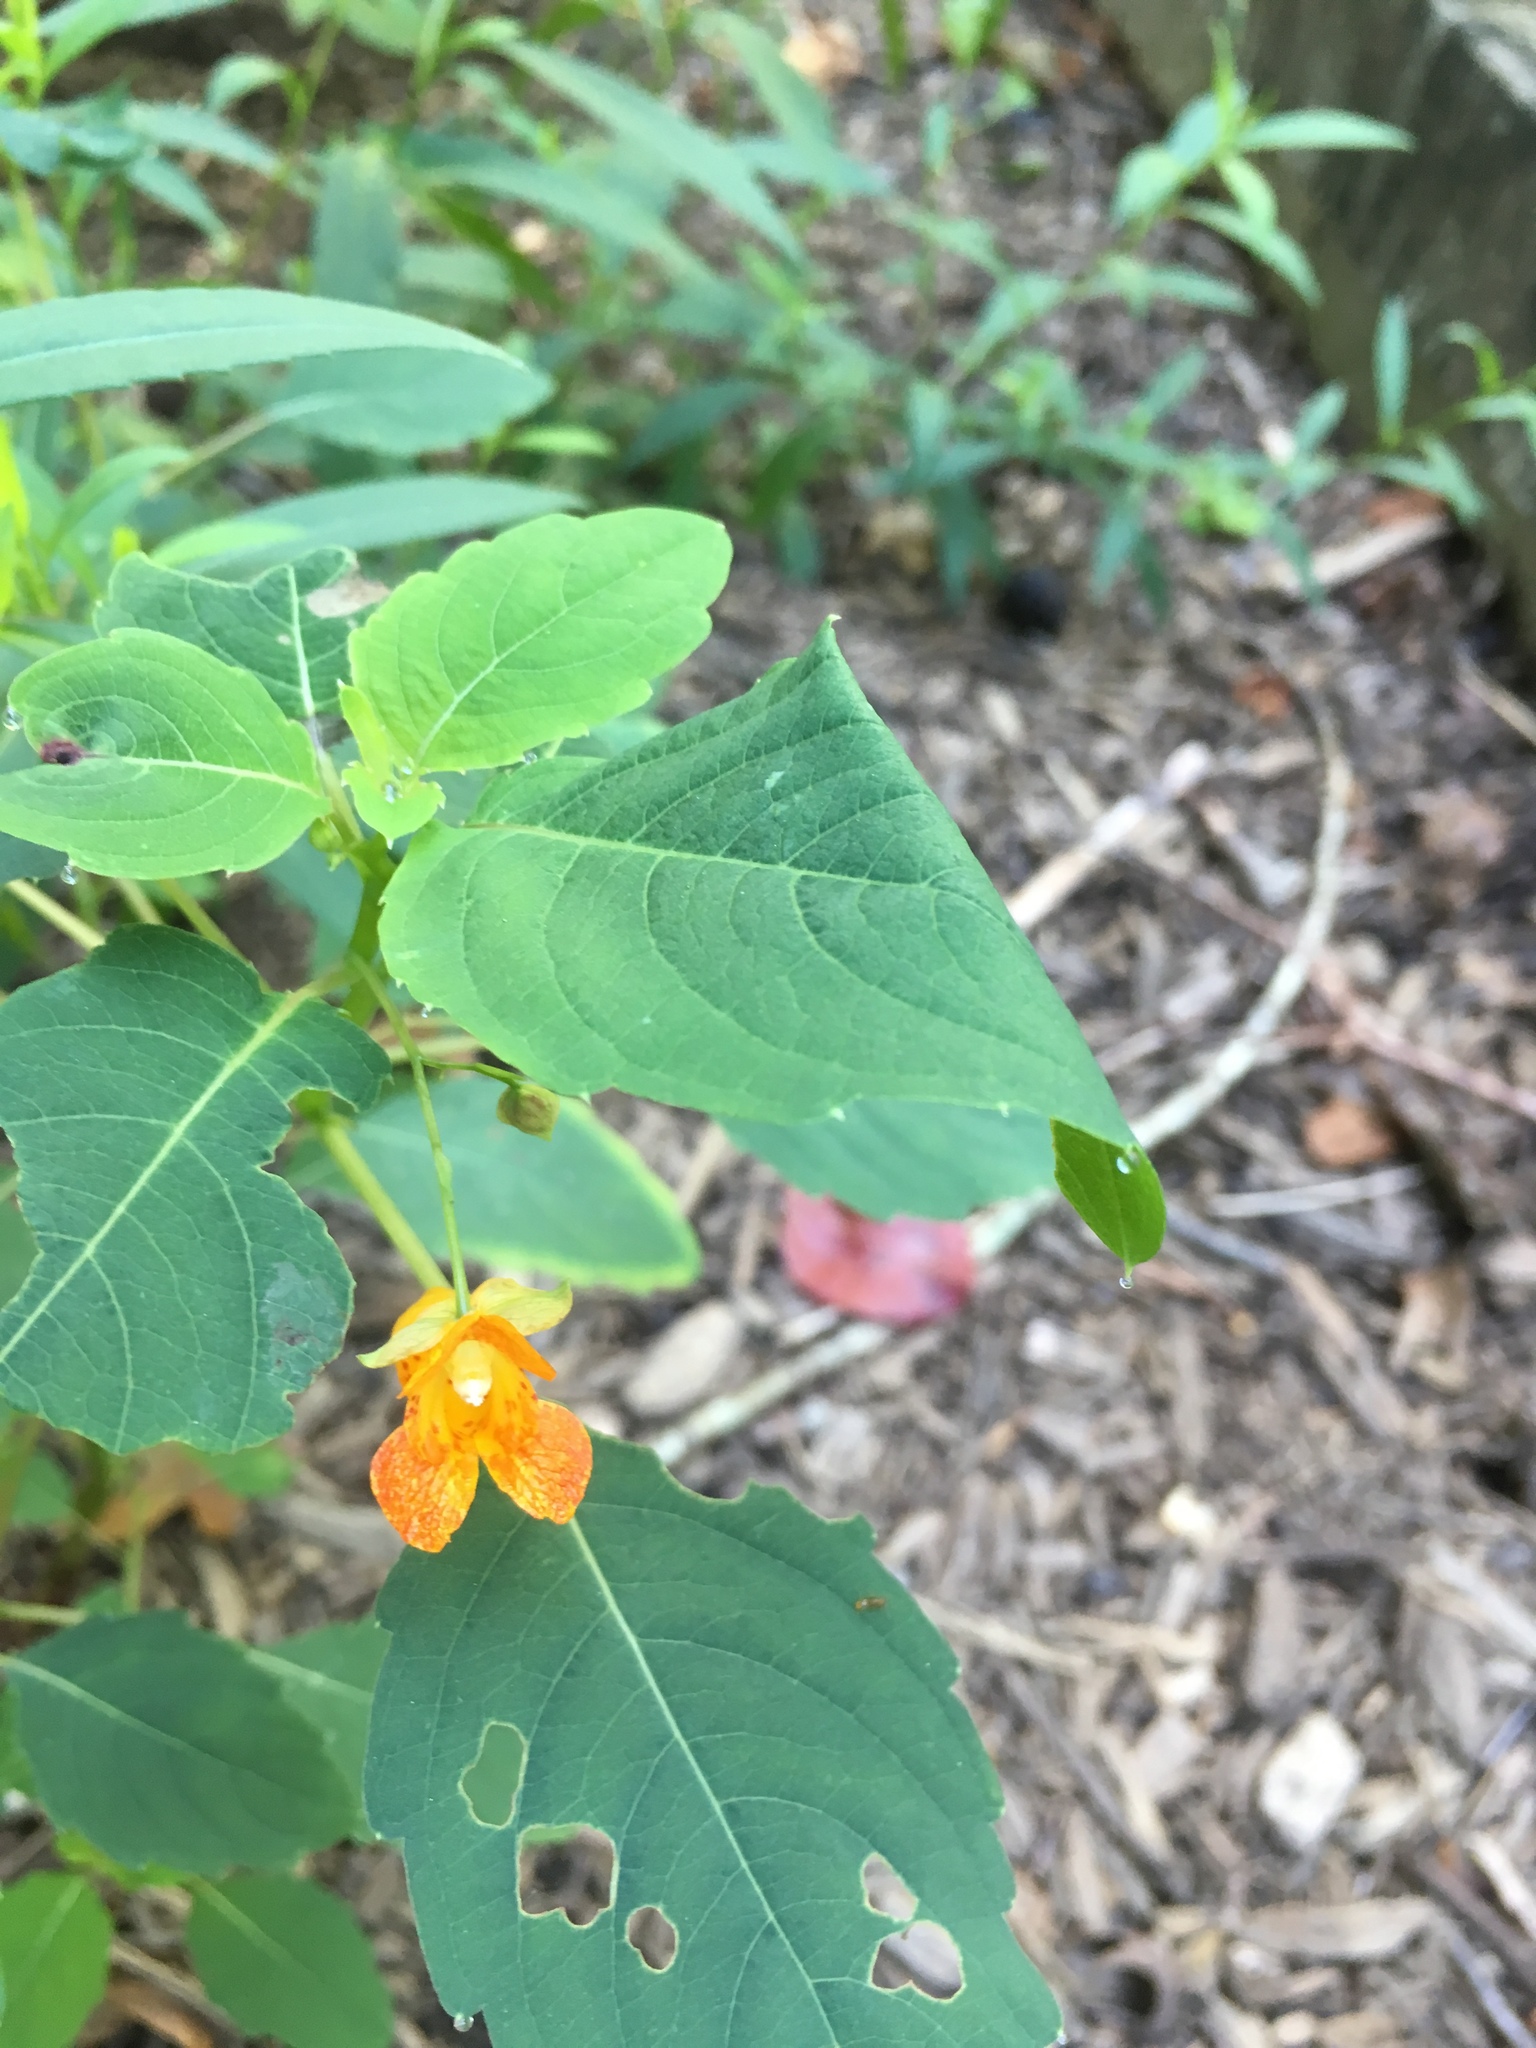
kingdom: Plantae
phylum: Tracheophyta
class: Magnoliopsida
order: Ericales
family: Balsaminaceae
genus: Impatiens
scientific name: Impatiens capensis
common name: Orange balsam
